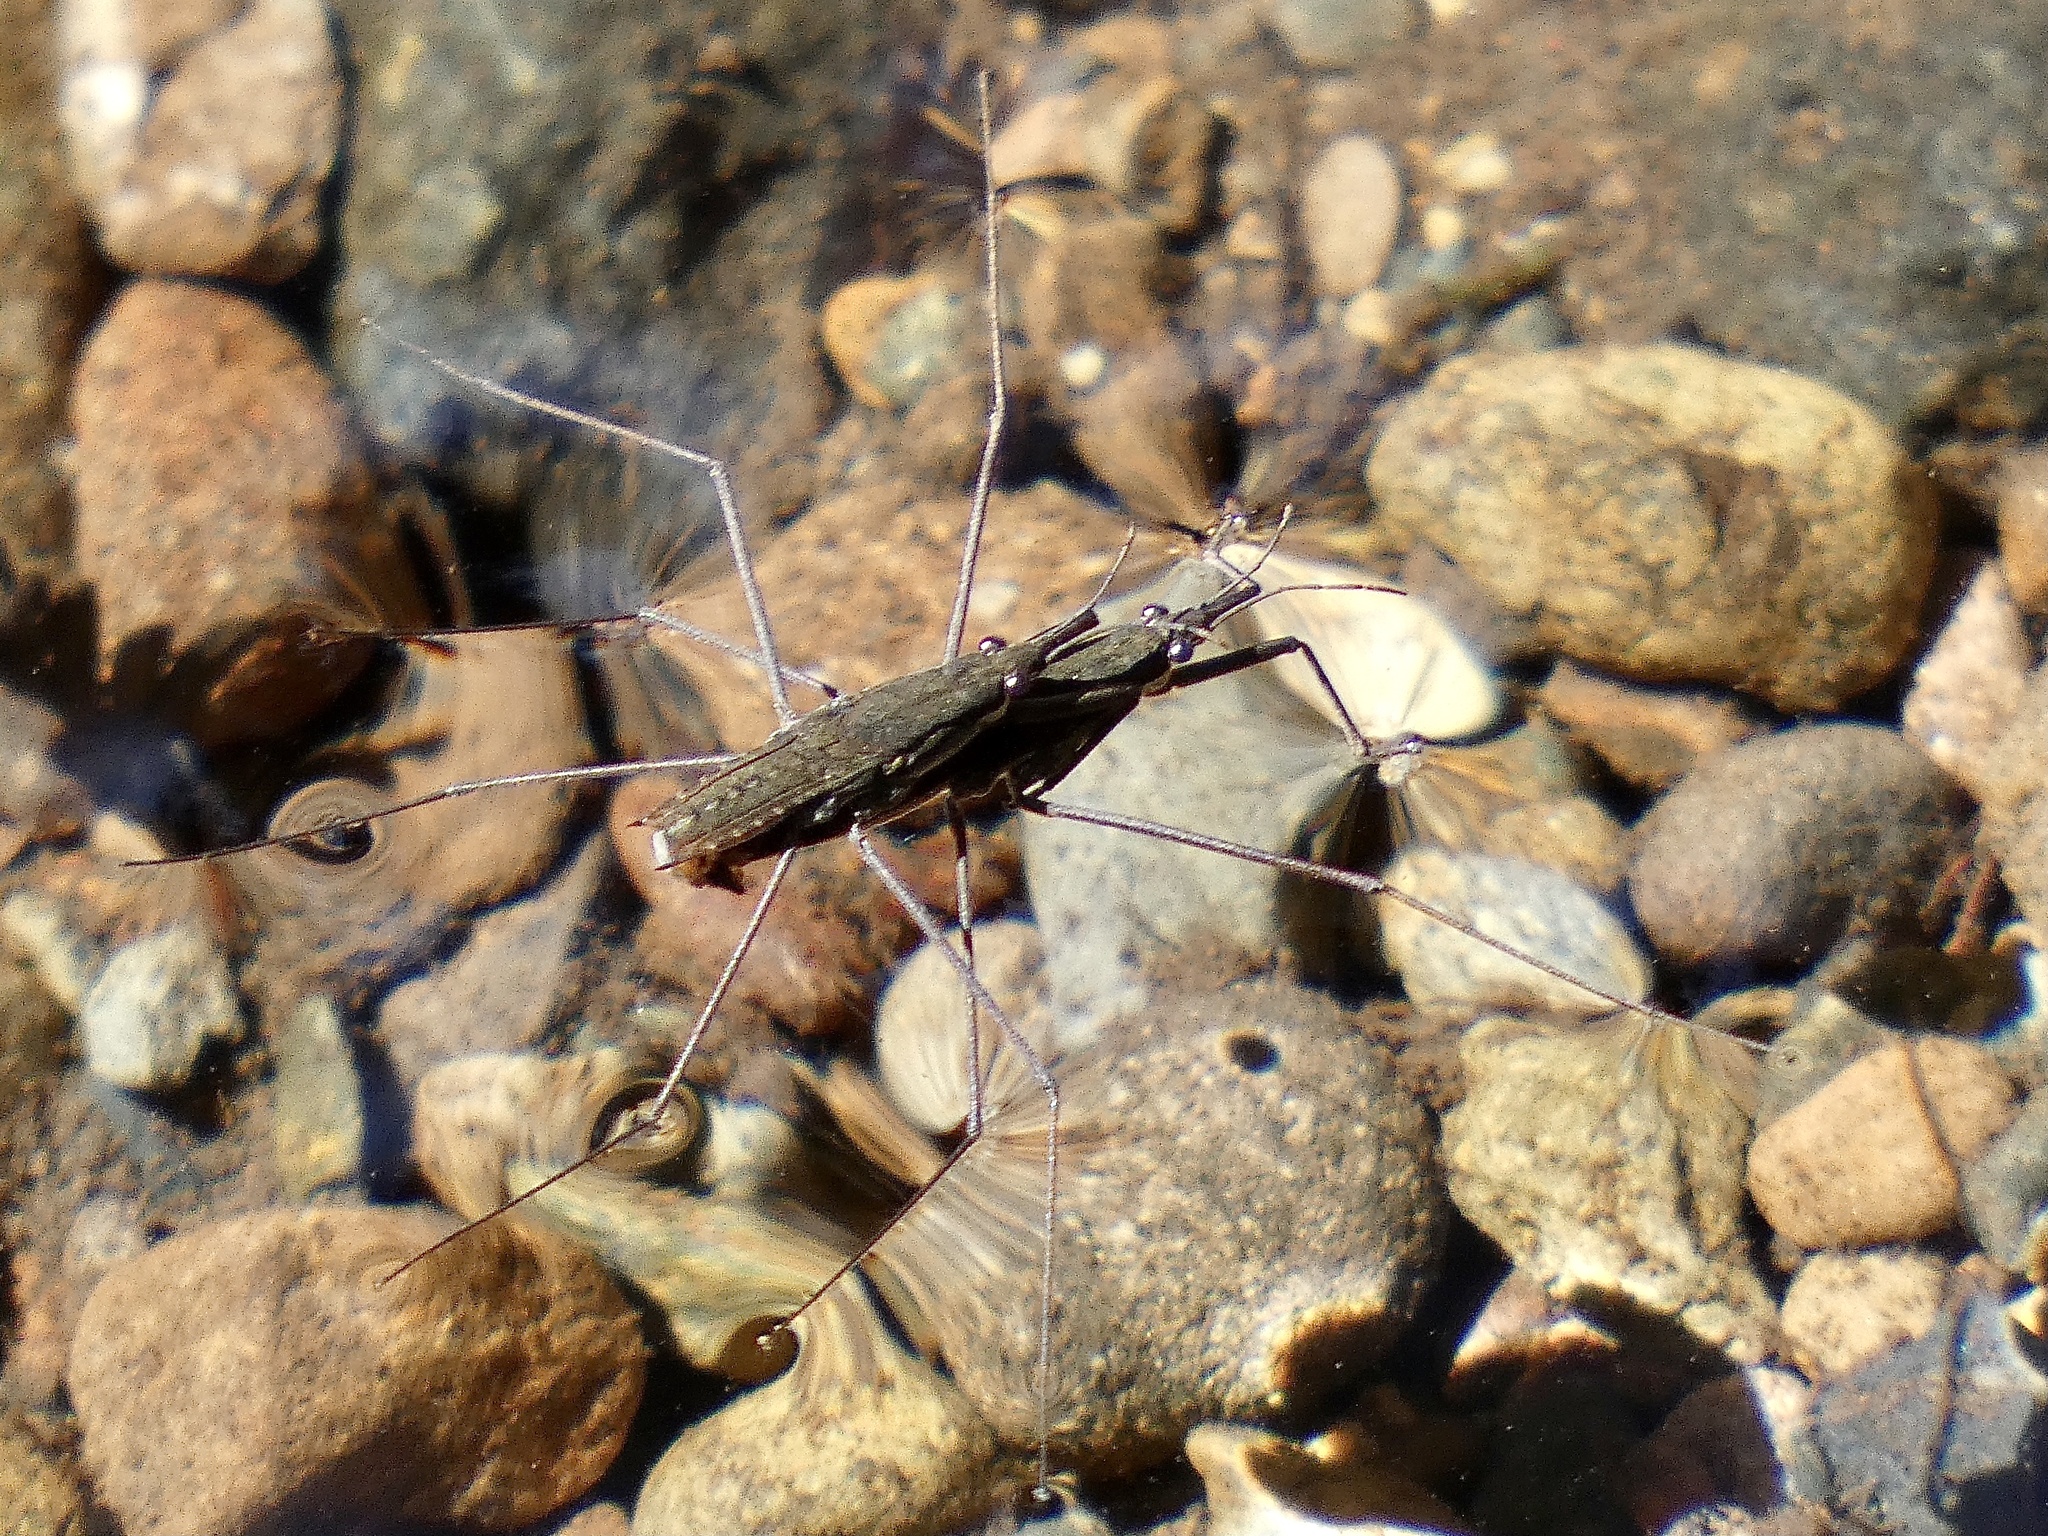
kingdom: Animalia
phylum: Arthropoda
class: Insecta
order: Hemiptera
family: Gerridae
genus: Aquarius
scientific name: Aquarius remigis
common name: Common water strider
